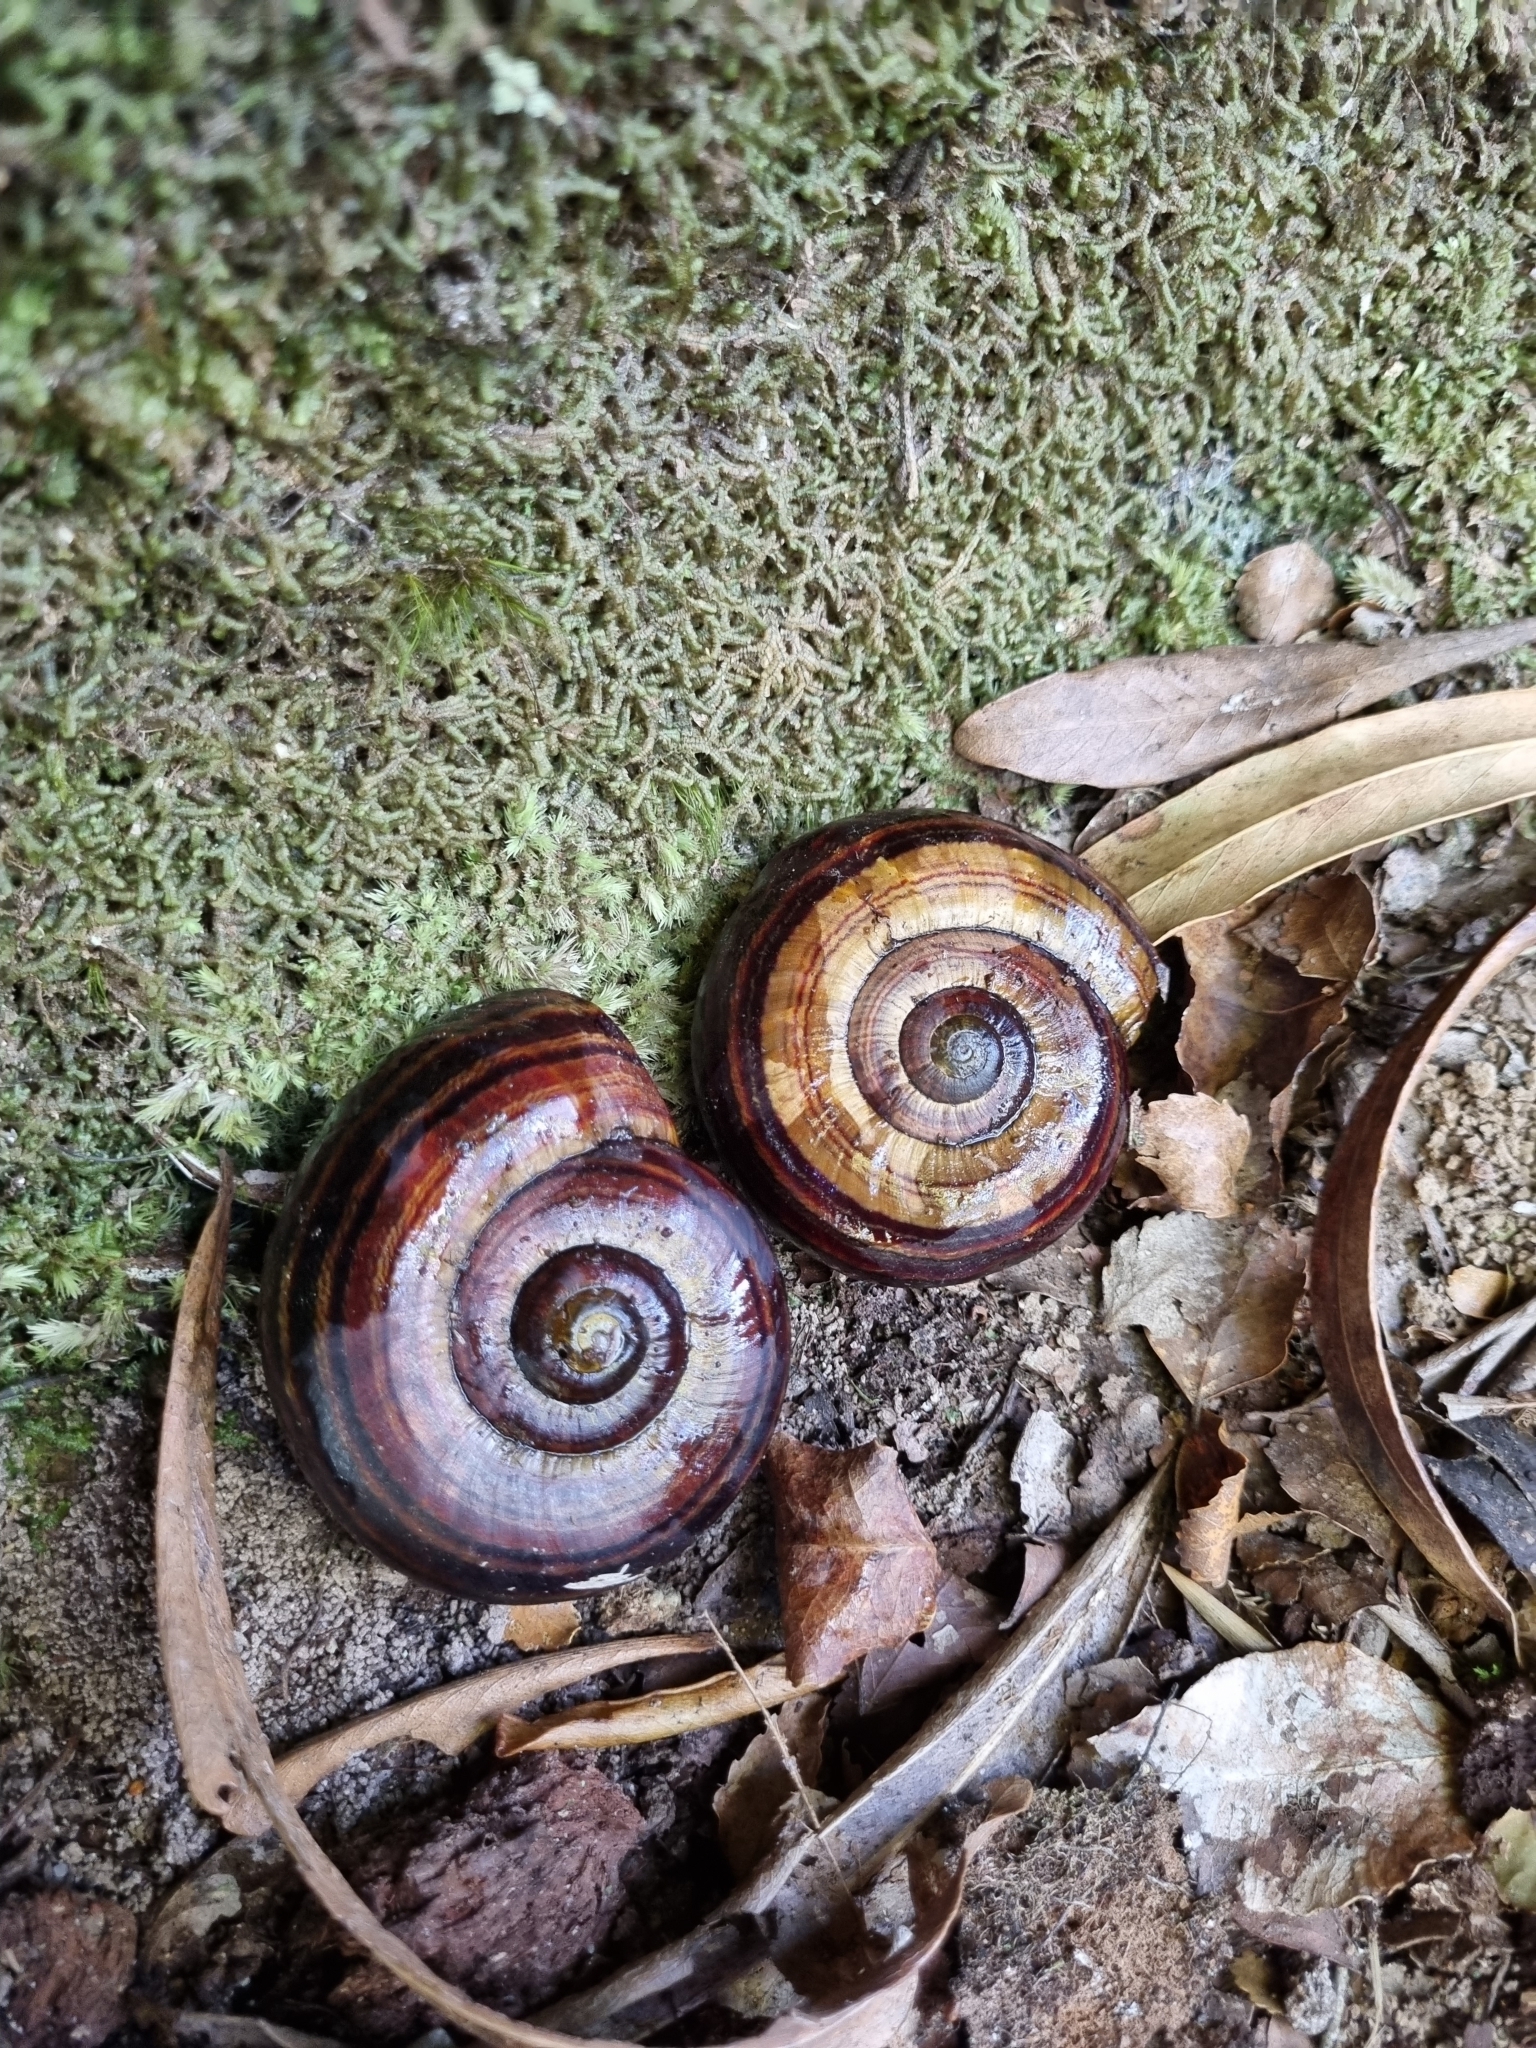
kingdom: Animalia
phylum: Mollusca
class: Gastropoda
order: Stylommatophora
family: Rhytididae
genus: Powelliphanta
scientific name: Powelliphanta hochstetteri
